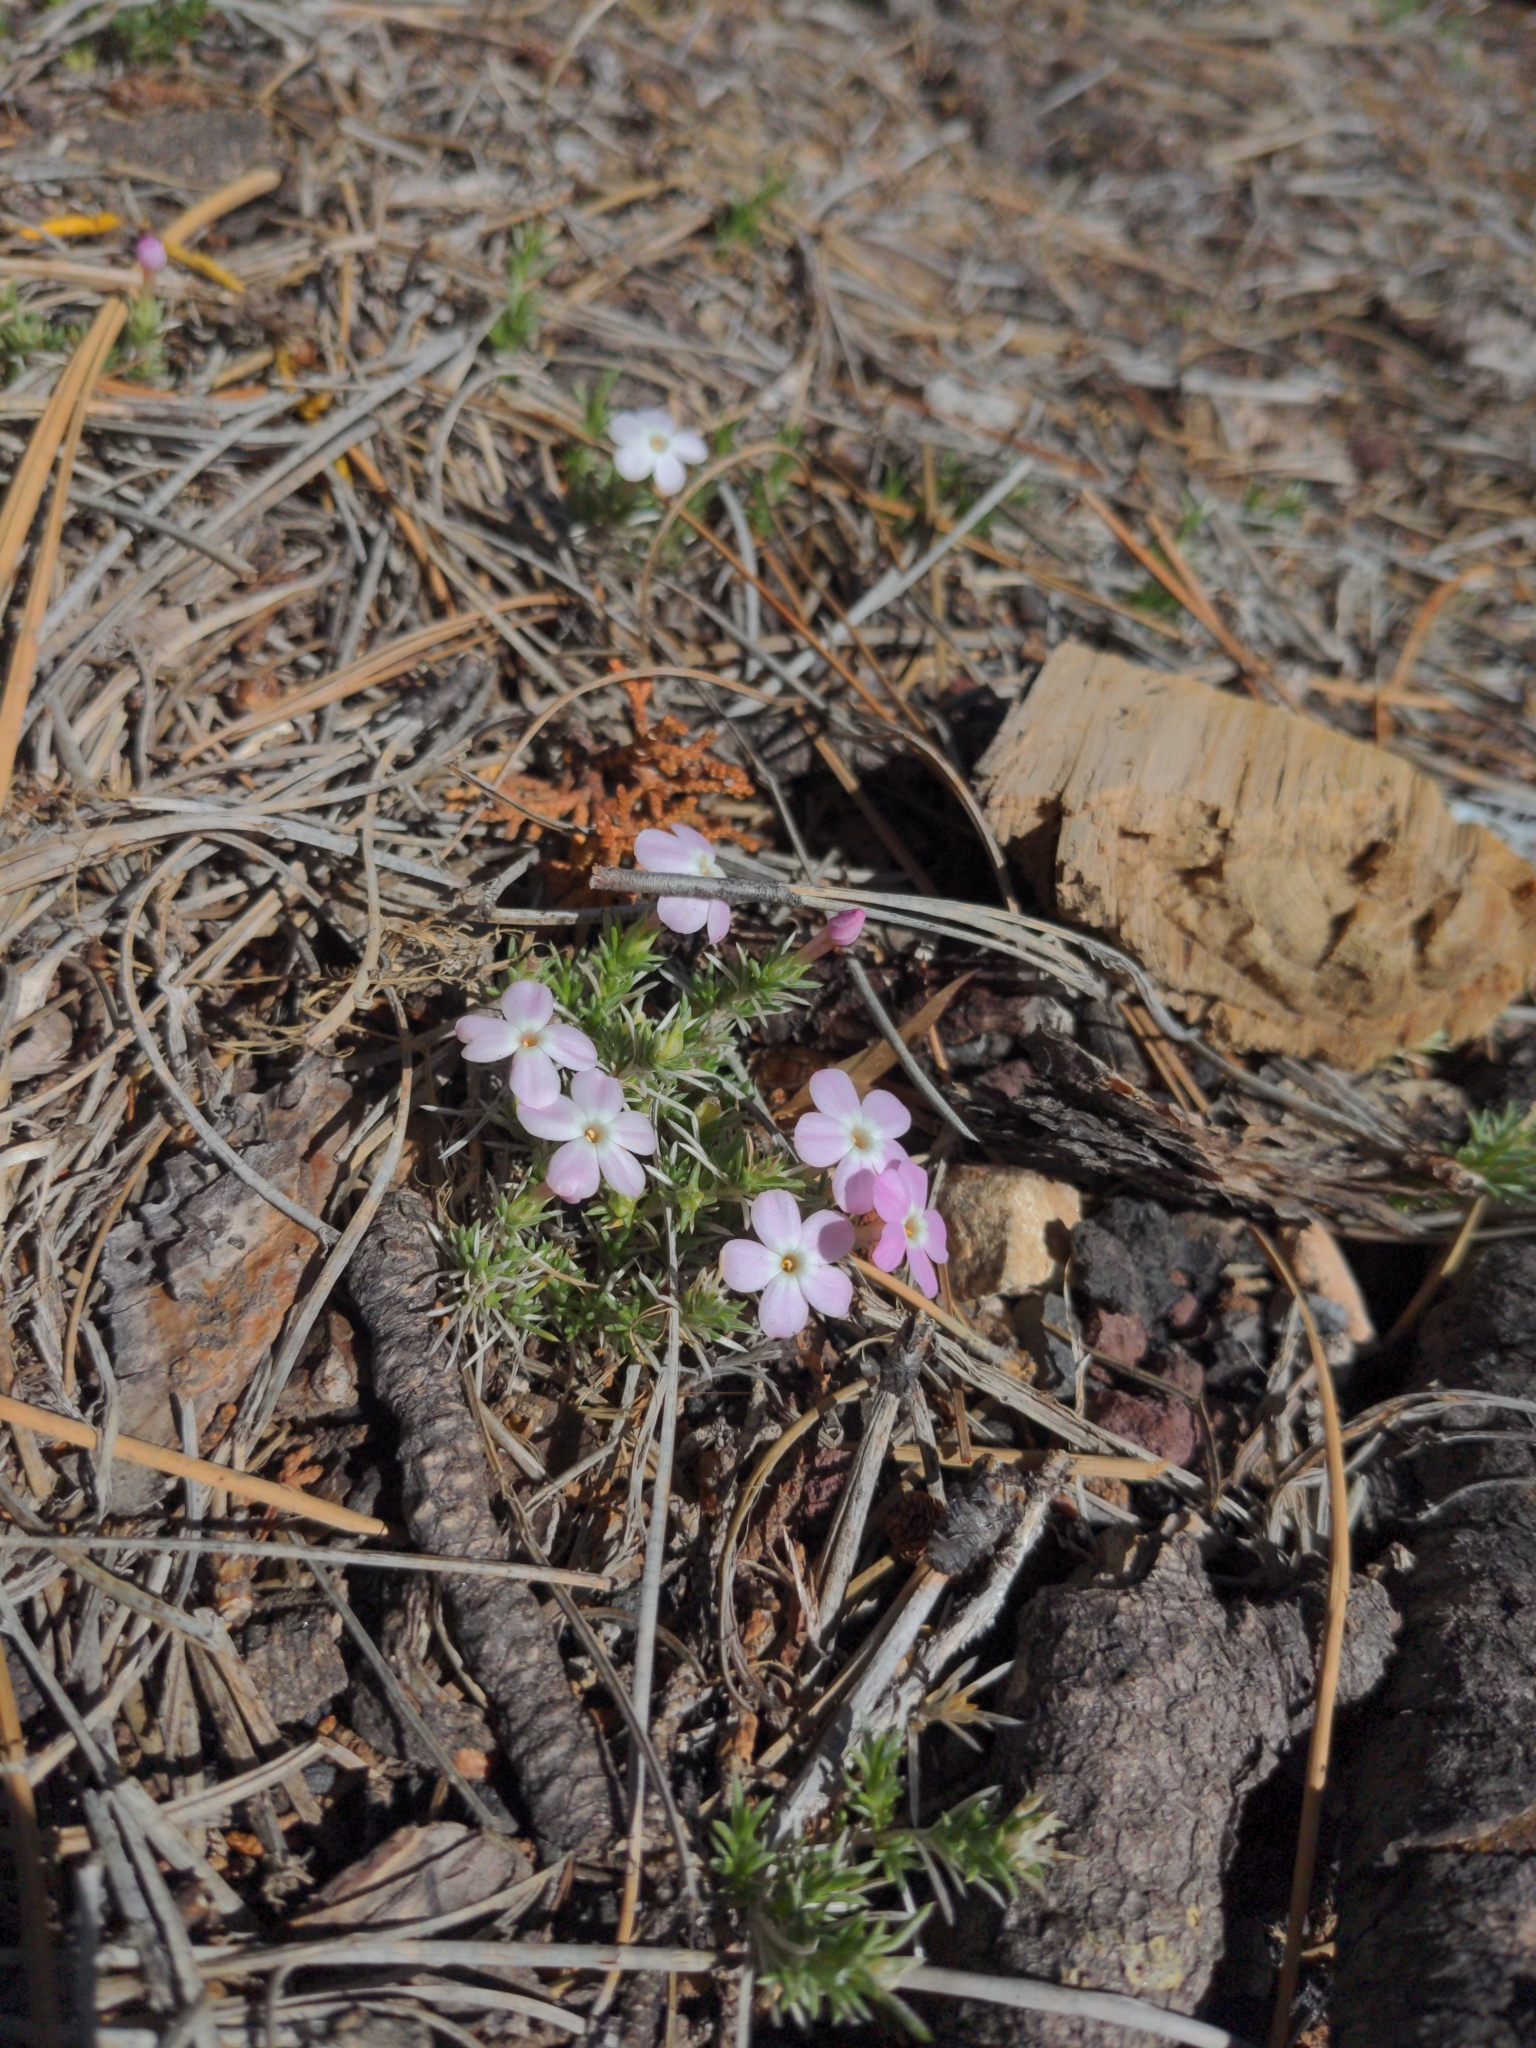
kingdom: Plantae
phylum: Tracheophyta
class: Magnoliopsida
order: Ericales
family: Polemoniaceae
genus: Phlox
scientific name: Phlox austromontana
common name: Desert phlox
